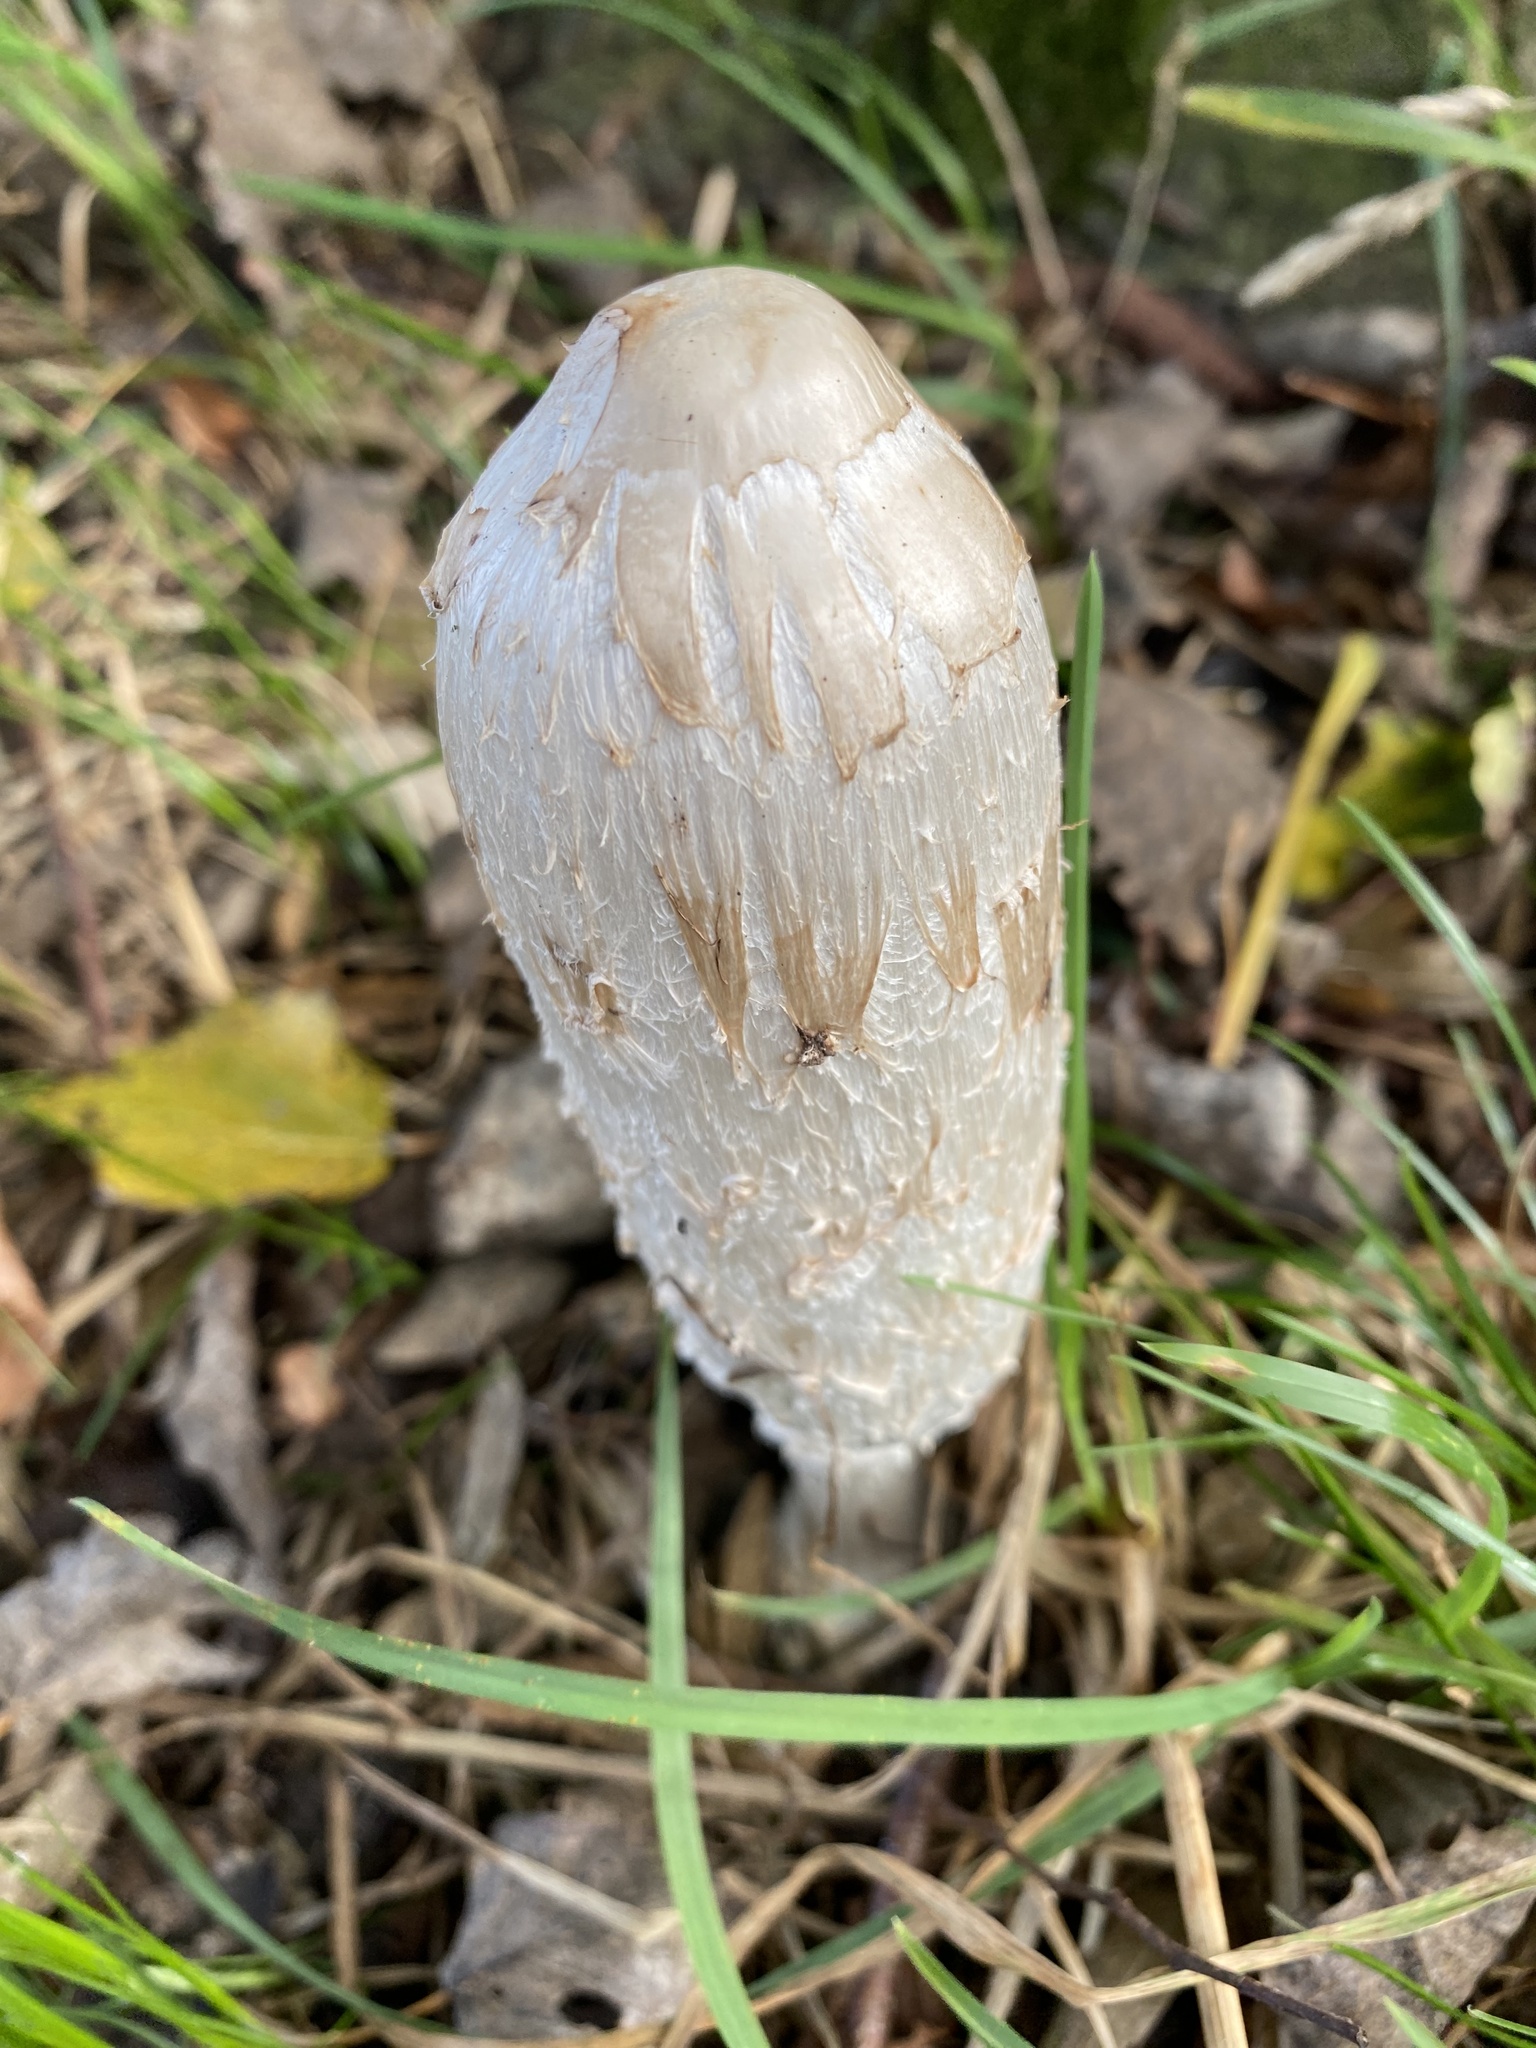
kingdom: Fungi
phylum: Basidiomycota
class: Agaricomycetes
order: Agaricales
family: Agaricaceae
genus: Coprinus
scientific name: Coprinus comatus
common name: Lawyer's wig
